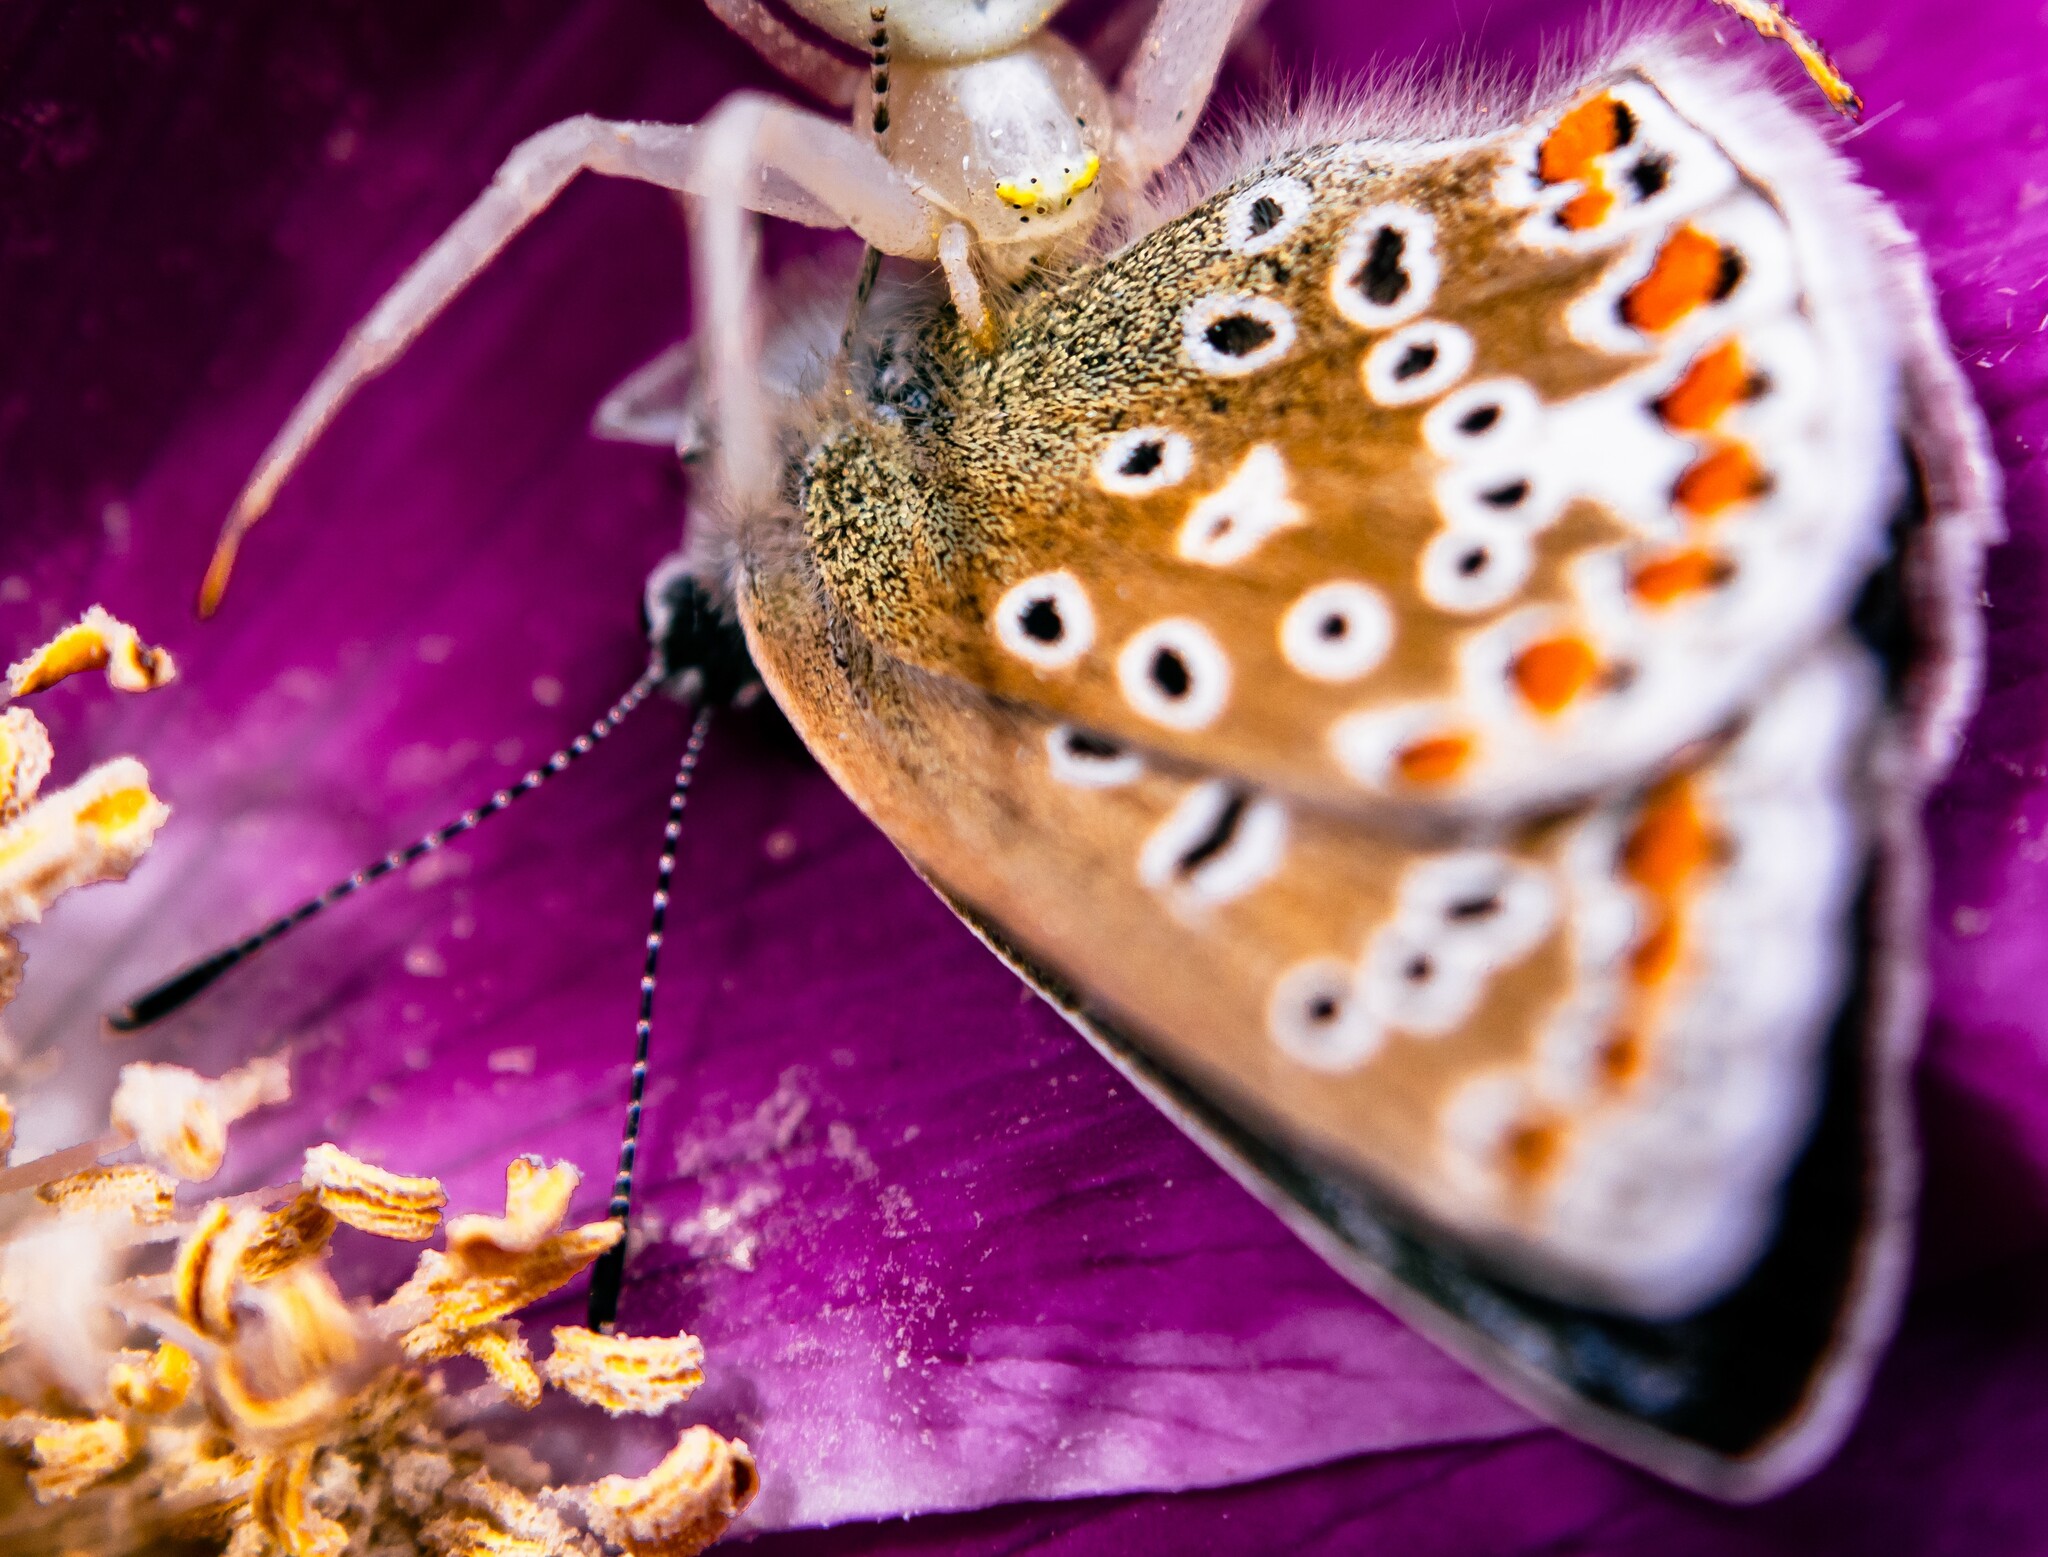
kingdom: Animalia
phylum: Arthropoda
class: Insecta
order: Lepidoptera
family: Lycaenidae
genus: Polyommatus
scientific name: Polyommatus icarus
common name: Common blue
